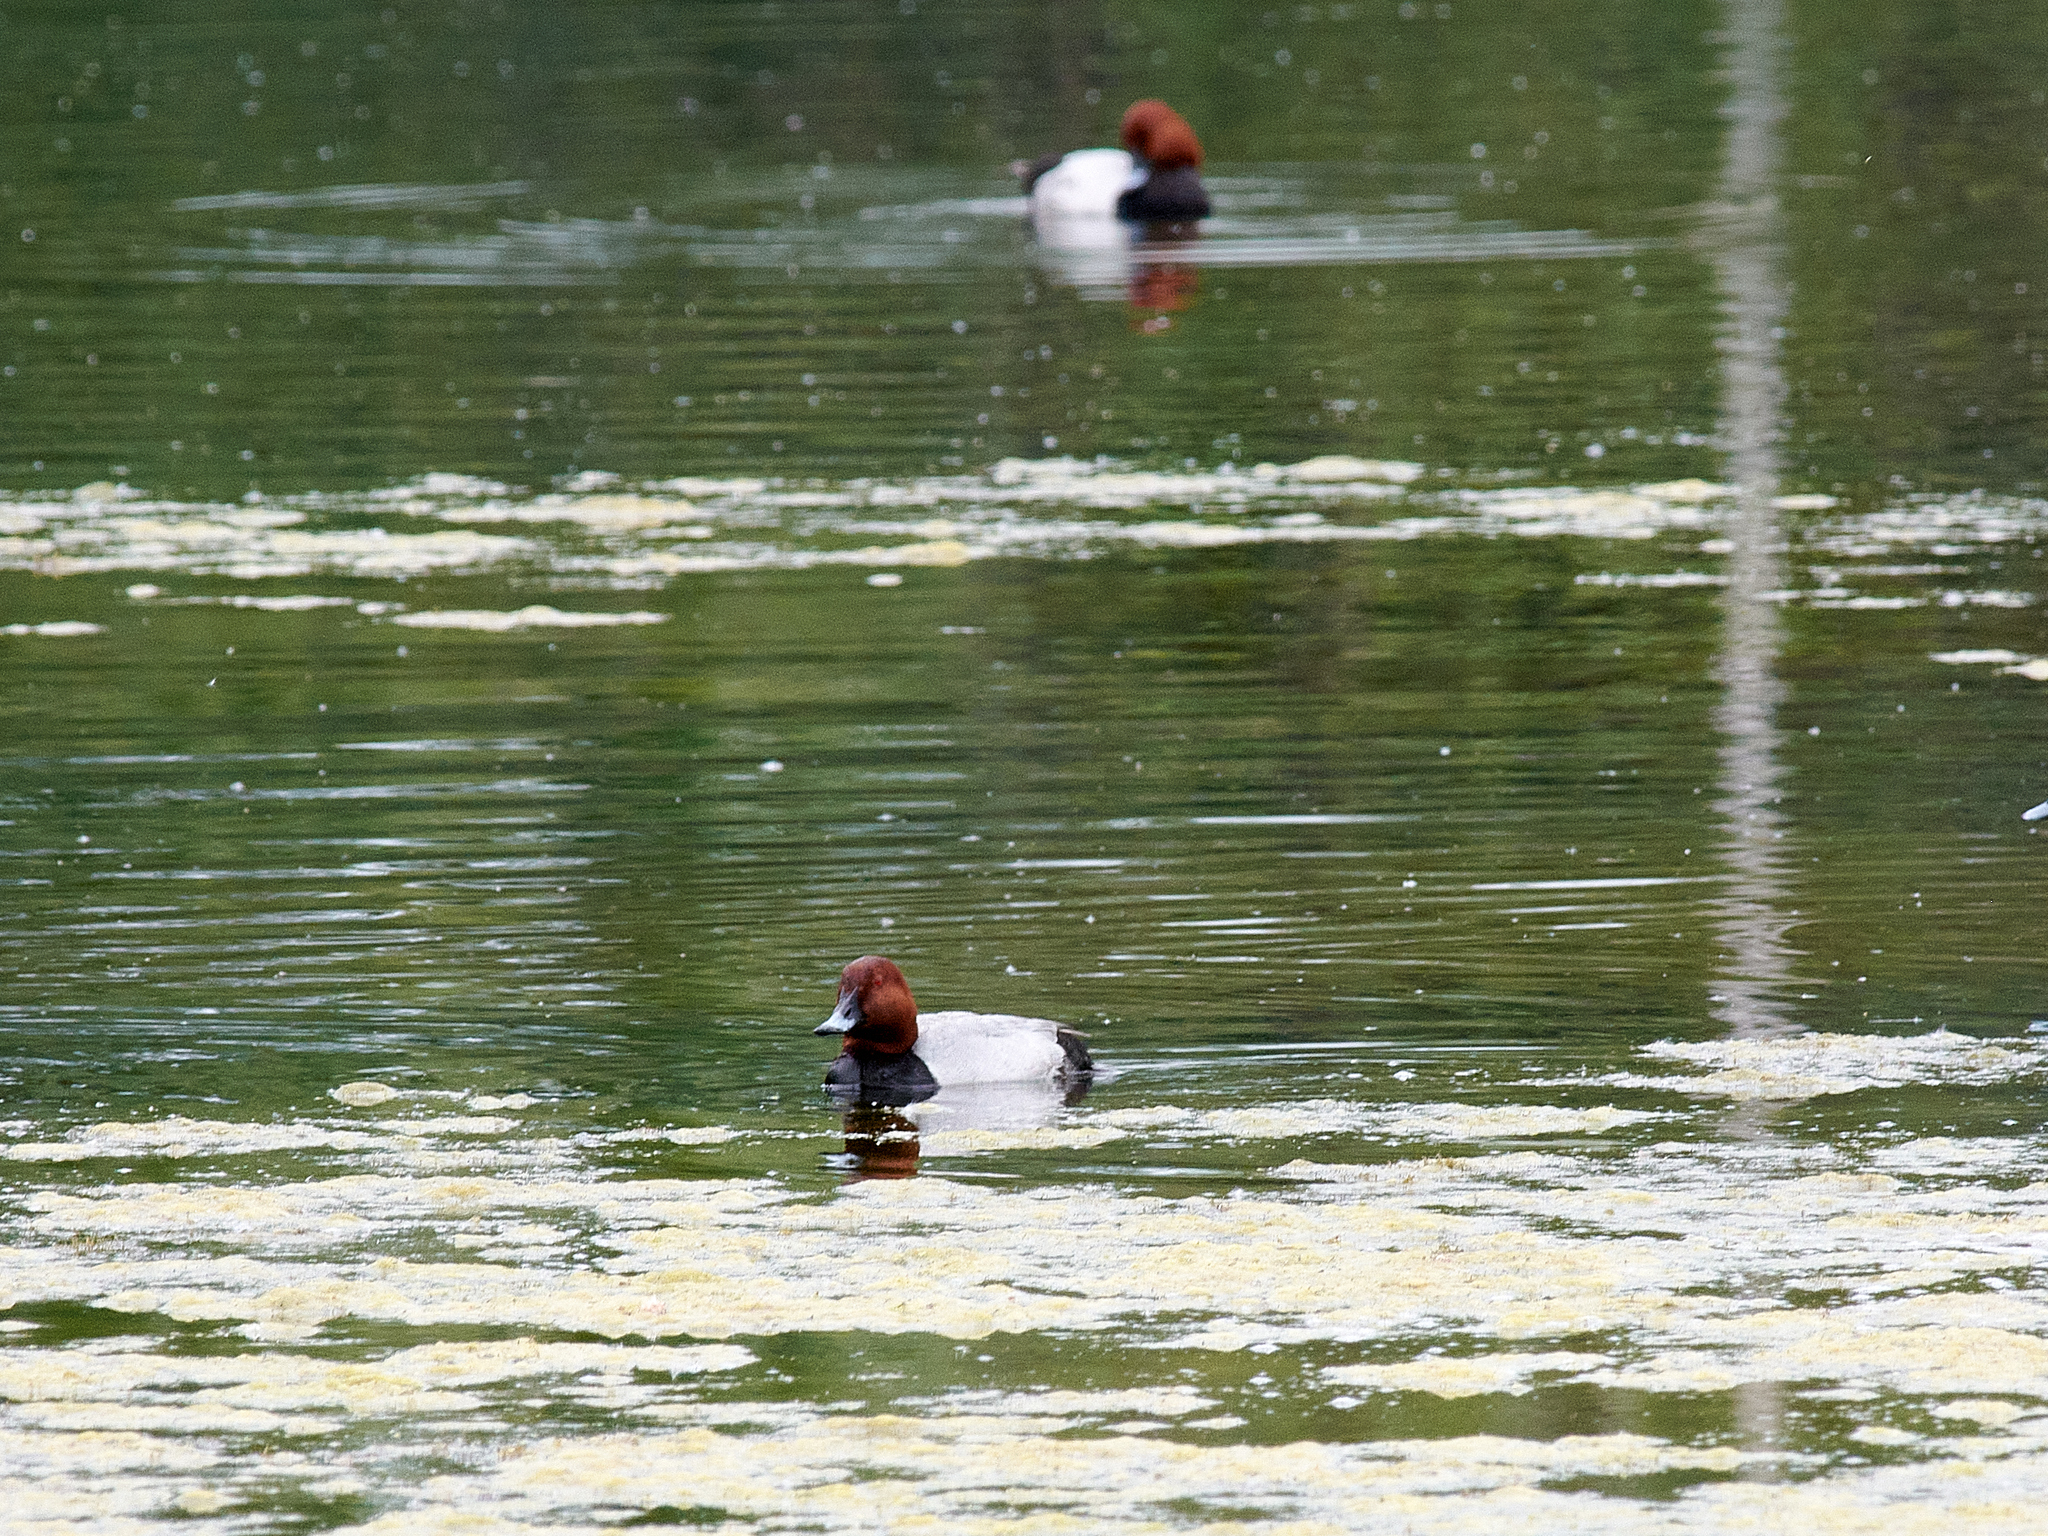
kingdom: Animalia
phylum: Chordata
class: Aves
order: Anseriformes
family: Anatidae
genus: Aythya
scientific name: Aythya ferina
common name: Common pochard
